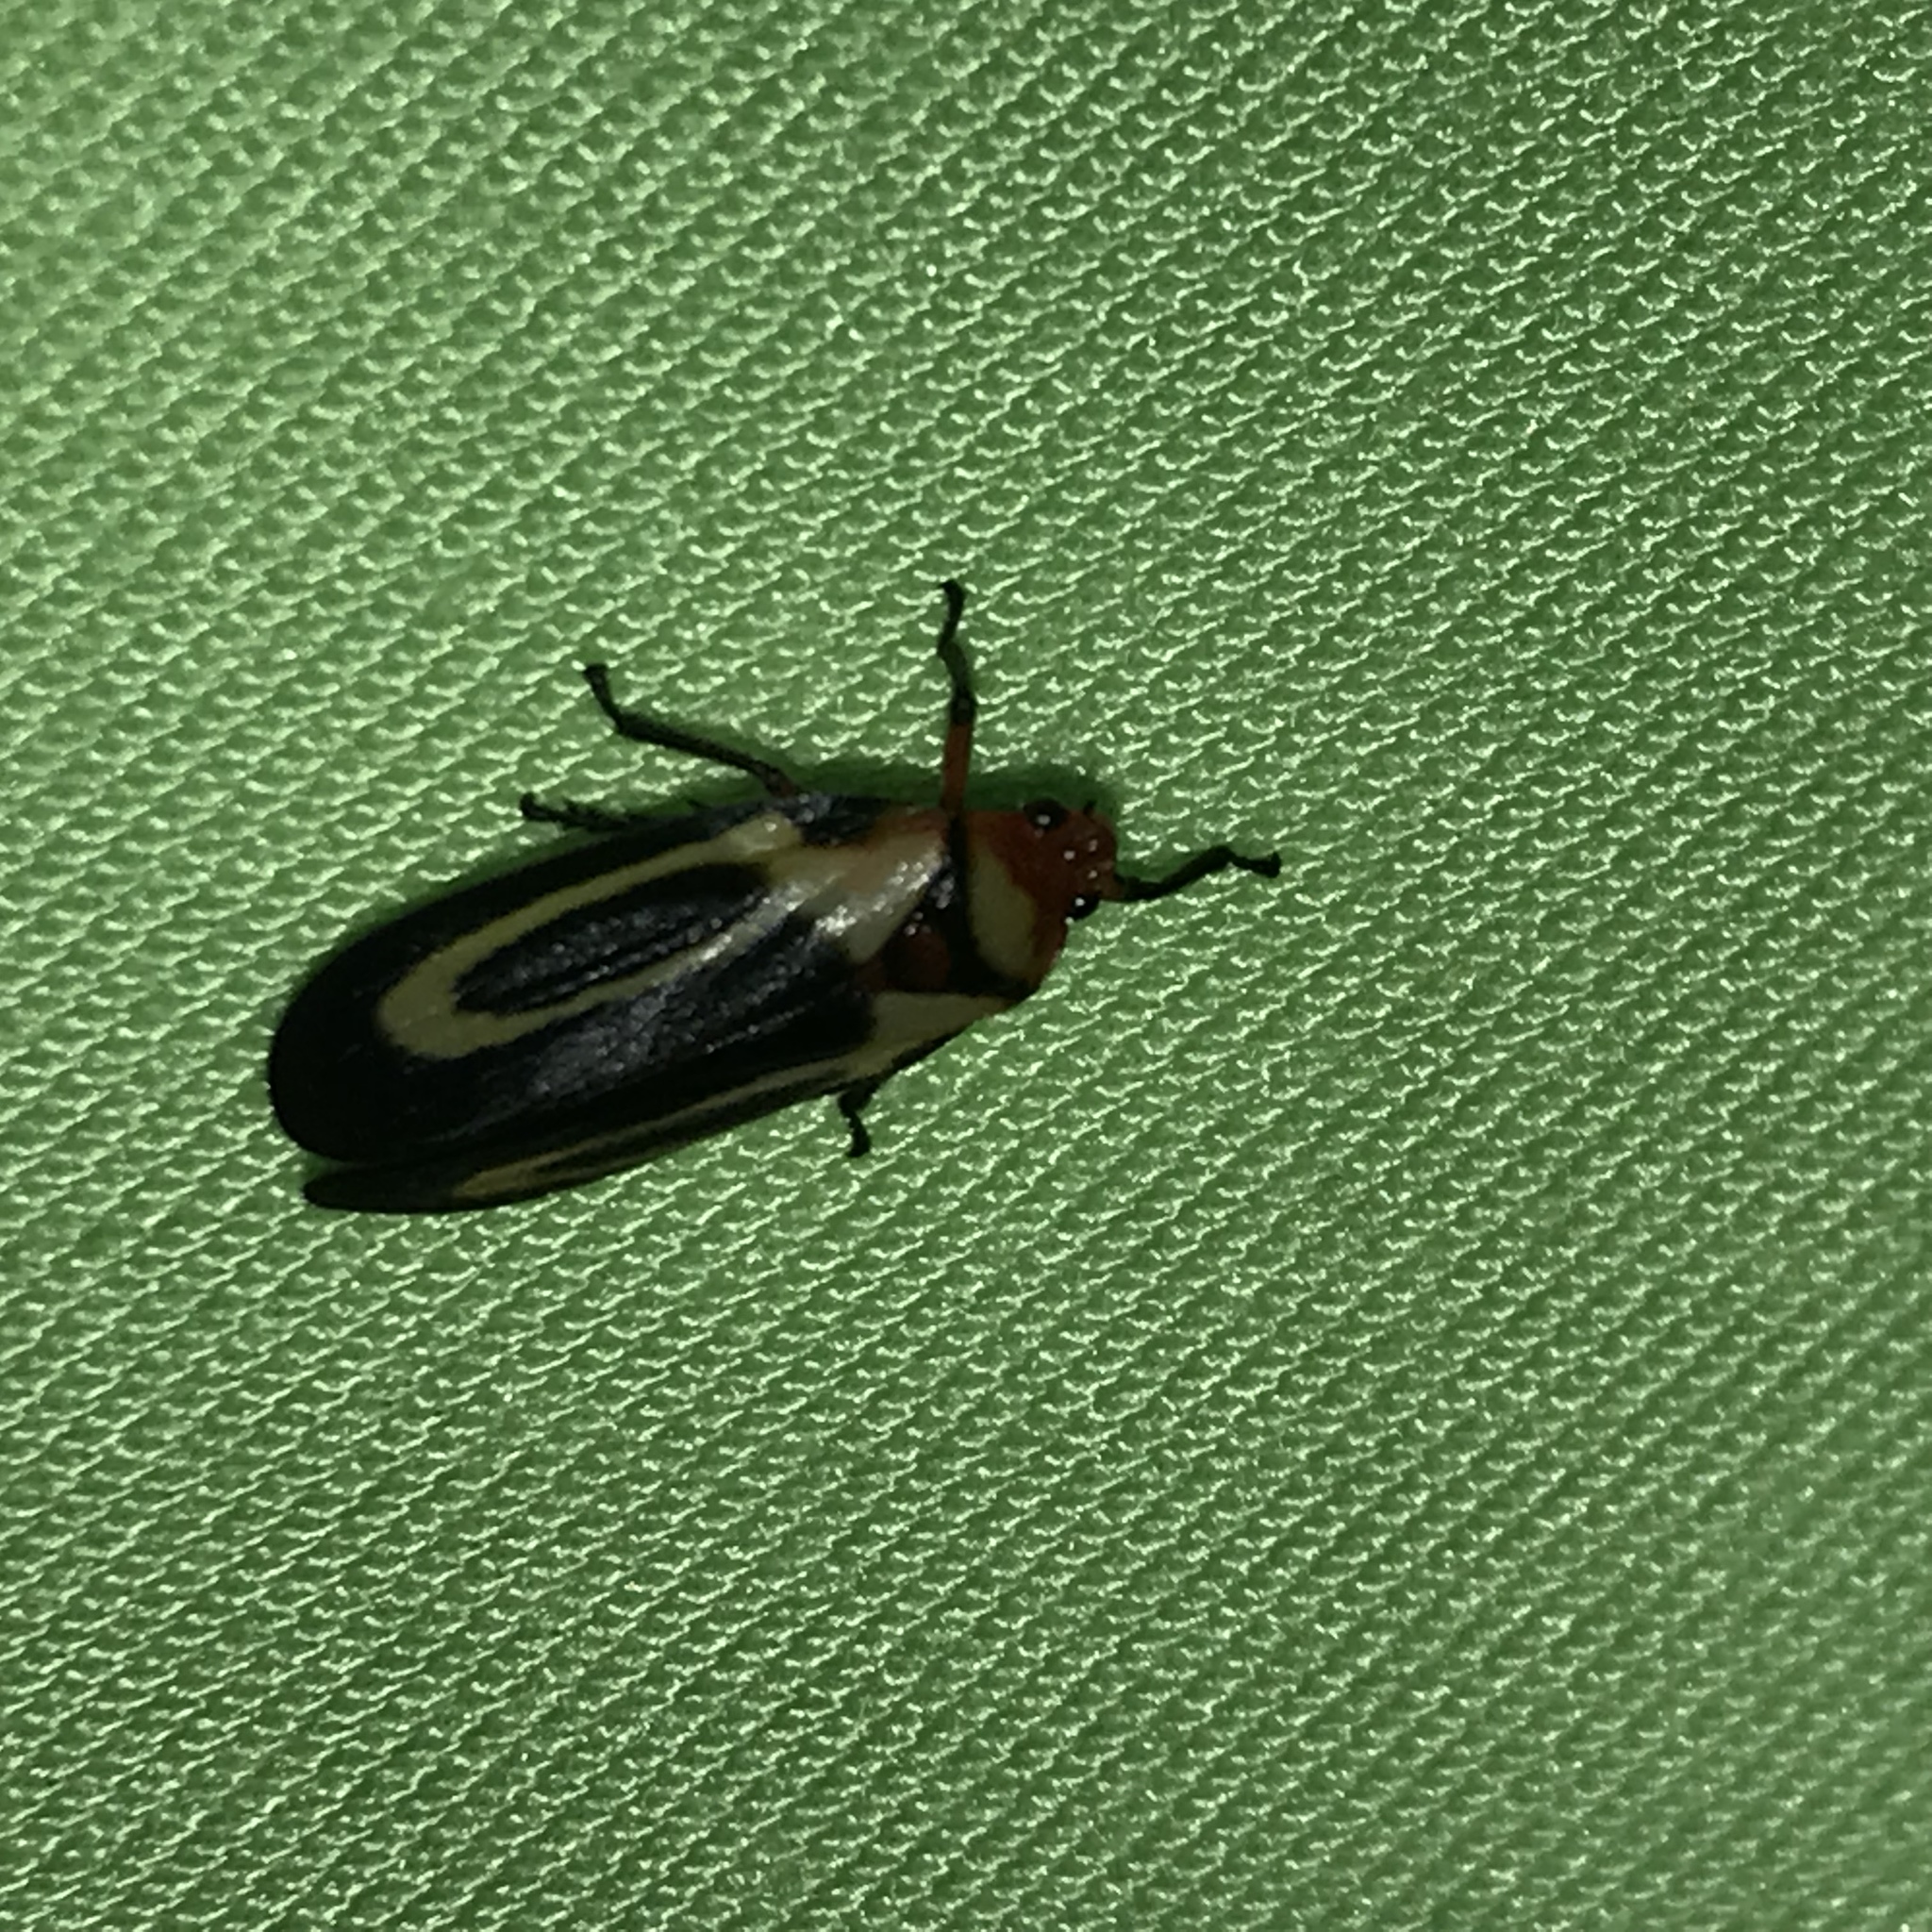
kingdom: Animalia
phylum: Arthropoda
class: Insecta
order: Hemiptera
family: Cercopidae
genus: Ocoaxo
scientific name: Ocoaxo
